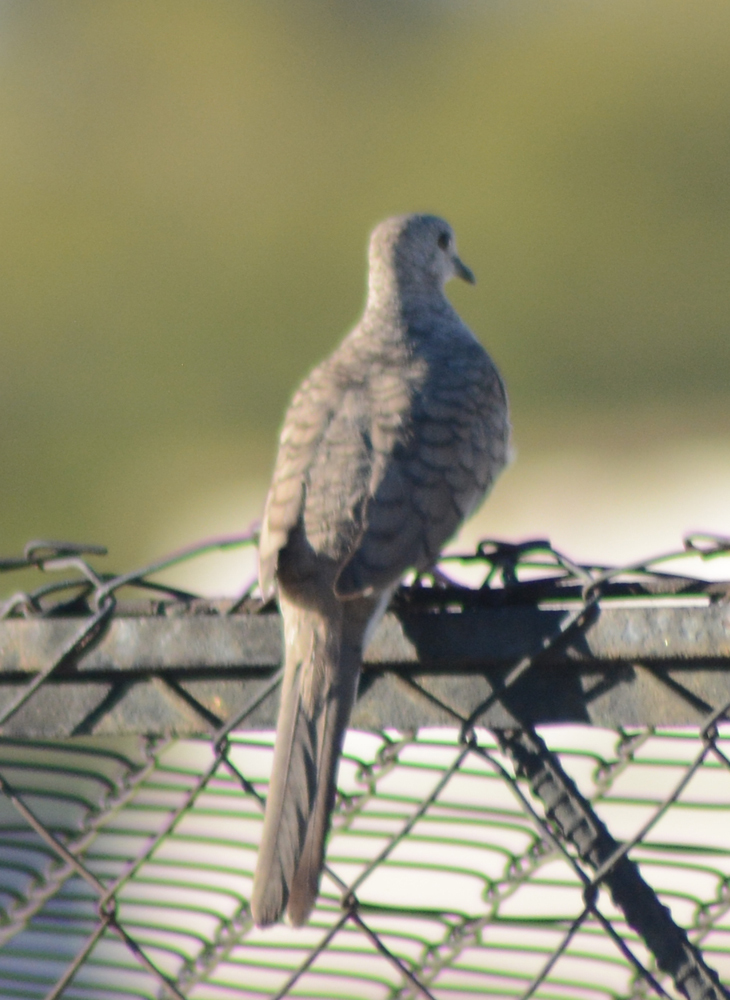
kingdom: Animalia
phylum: Chordata
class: Aves
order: Columbiformes
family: Columbidae
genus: Columbina
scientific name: Columbina inca
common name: Inca dove
